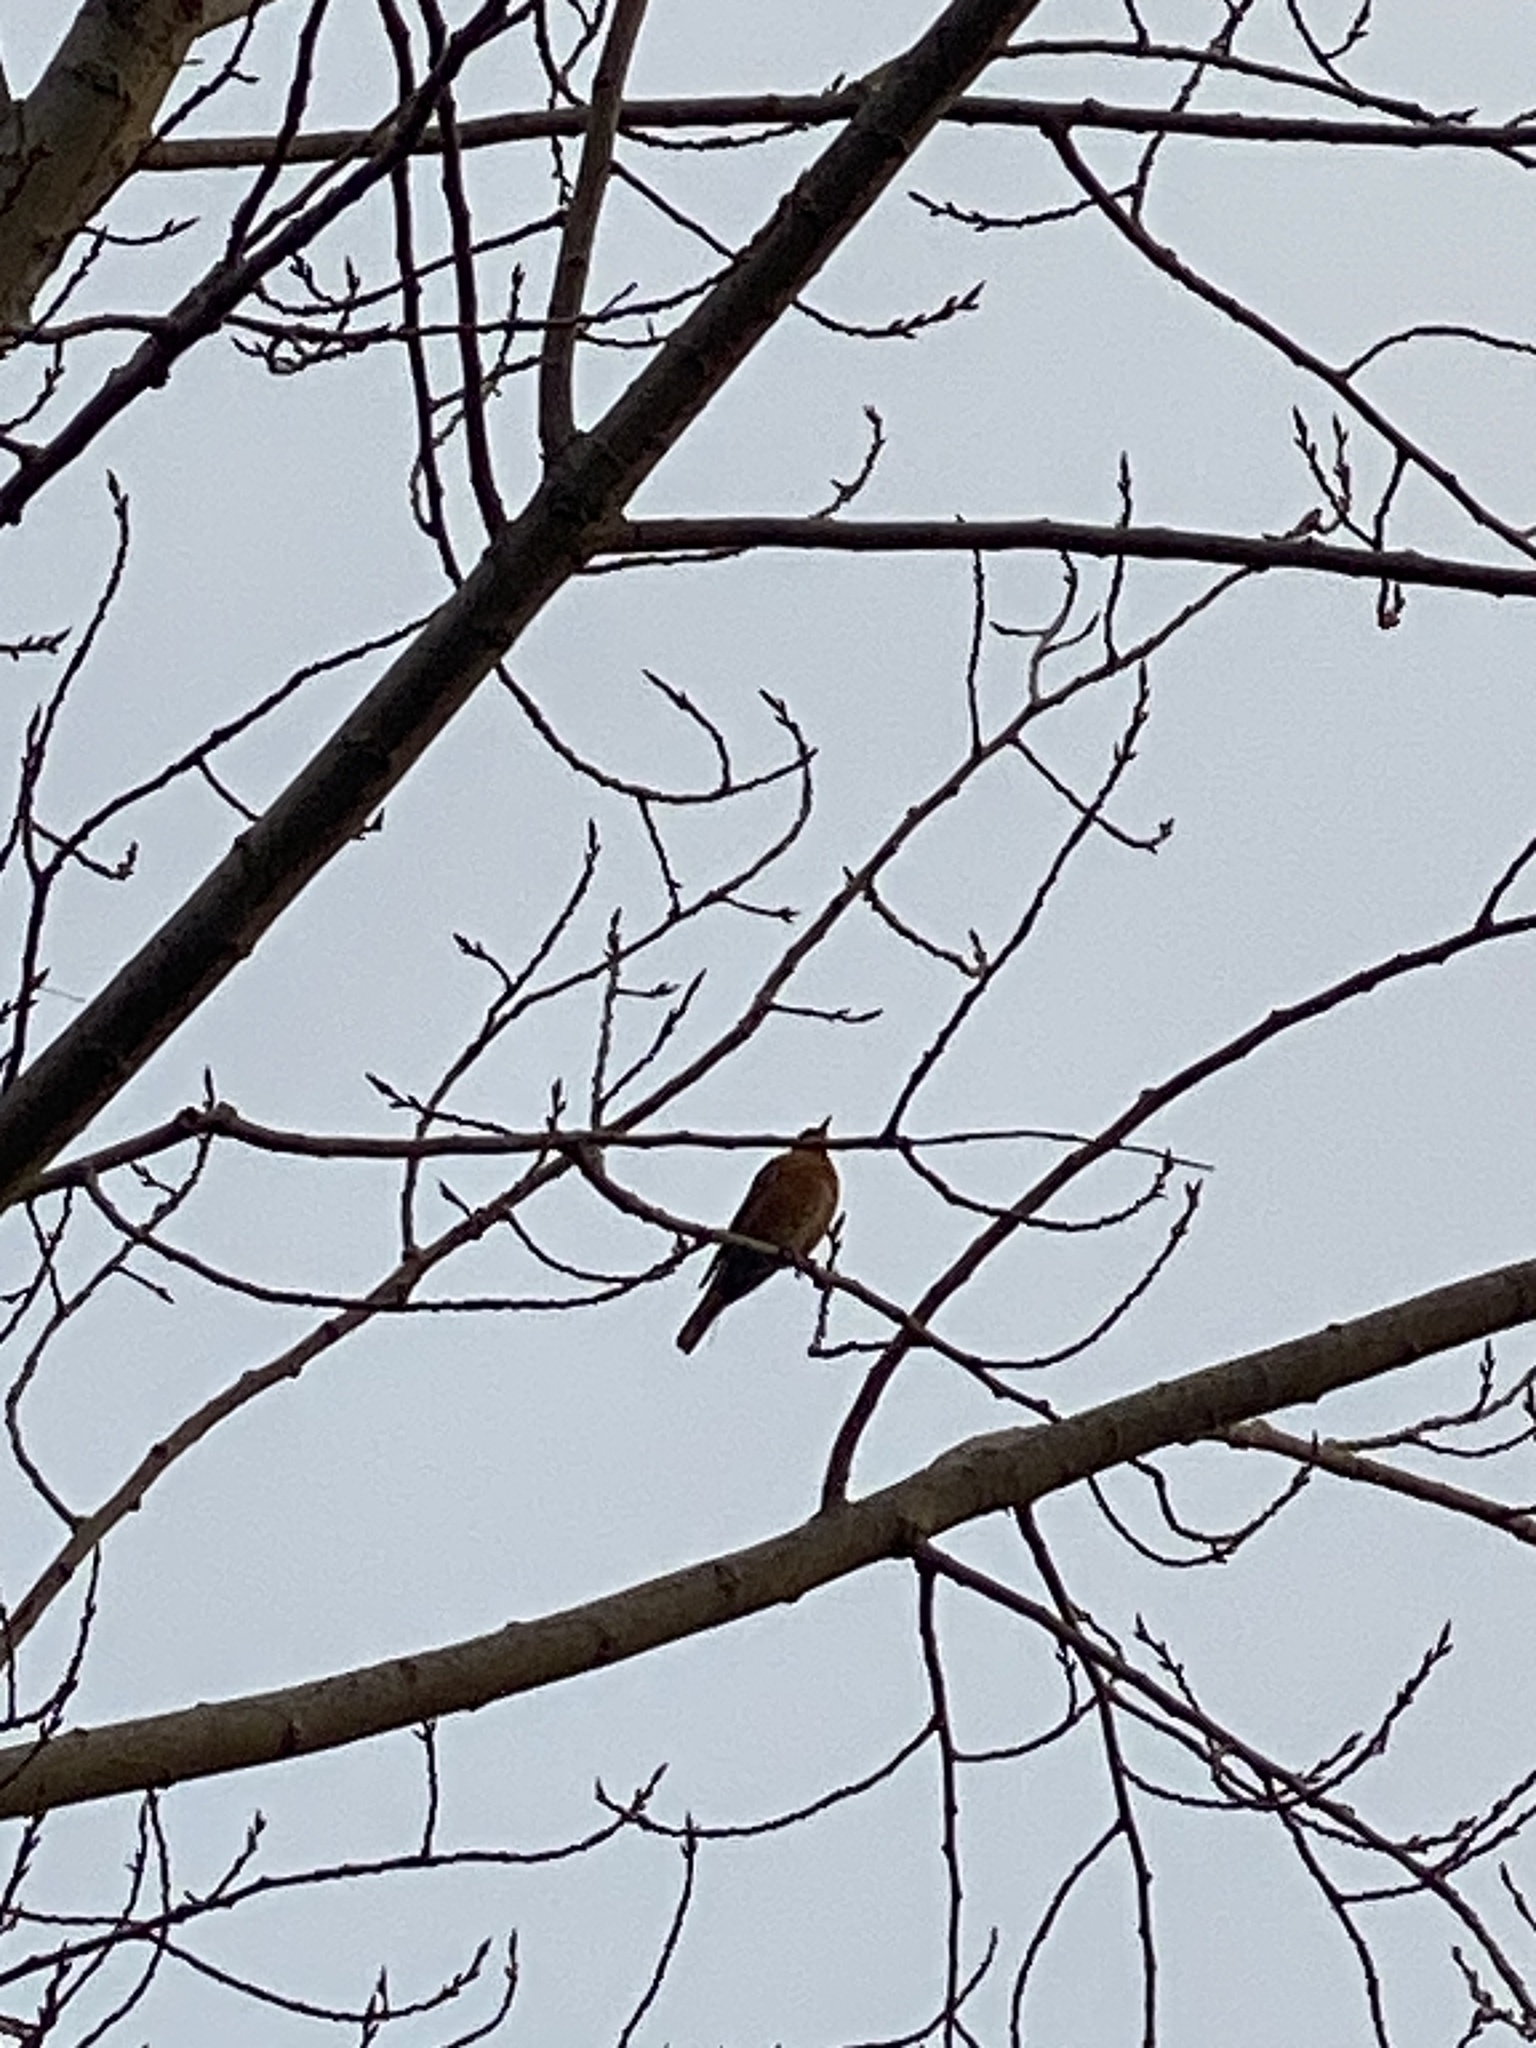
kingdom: Animalia
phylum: Chordata
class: Aves
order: Passeriformes
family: Turdidae
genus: Turdus
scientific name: Turdus migratorius
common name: American robin
